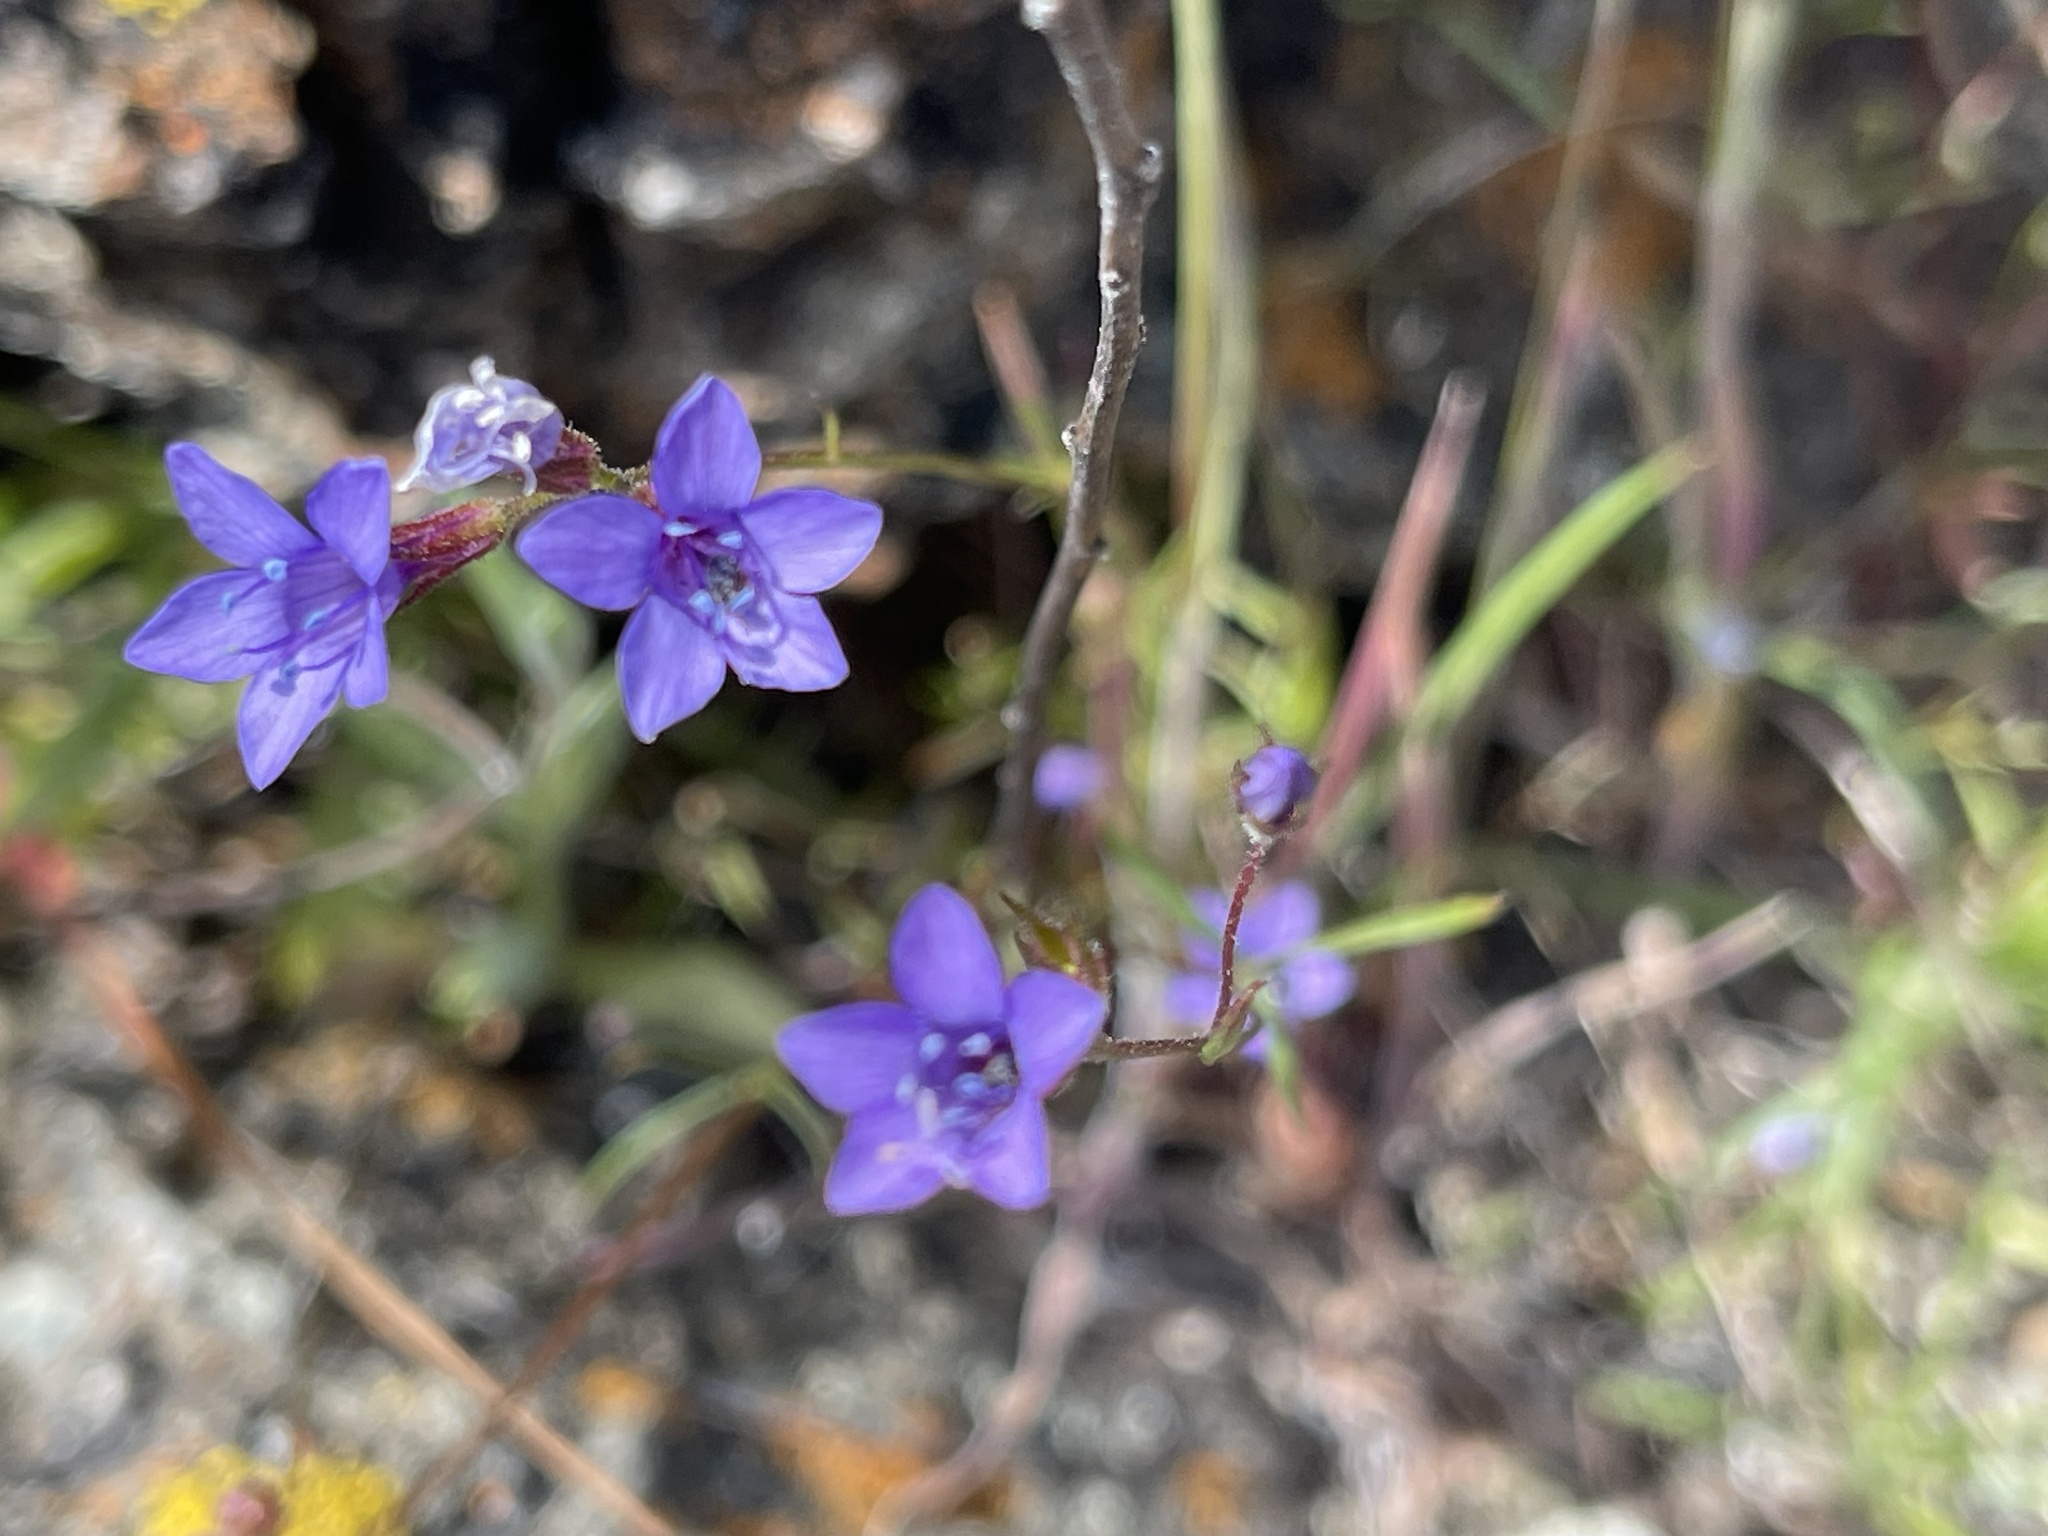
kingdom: Plantae
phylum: Tracheophyta
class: Magnoliopsida
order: Ericales
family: Polemoniaceae
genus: Gilia
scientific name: Gilia achilleifolia
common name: California gily-flower
